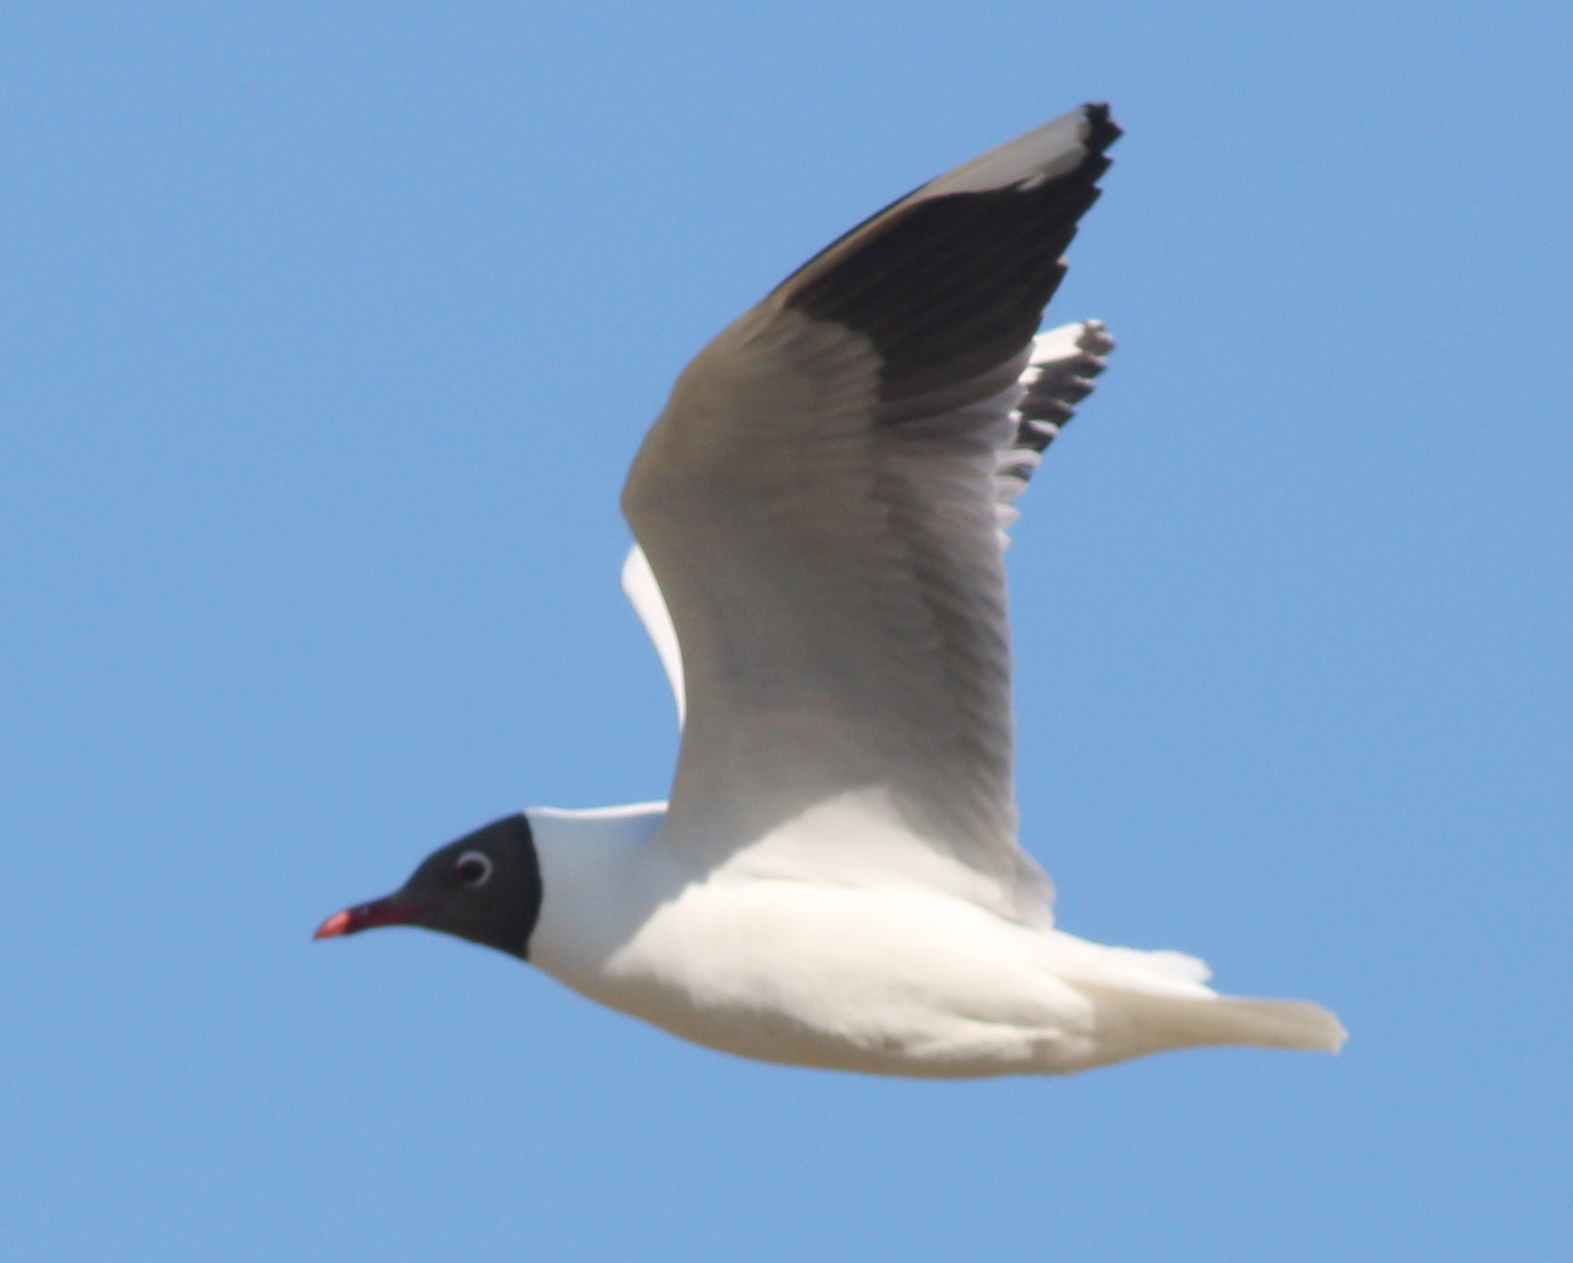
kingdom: Animalia
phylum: Chordata
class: Aves
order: Charadriiformes
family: Laridae
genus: Chroicocephalus
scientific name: Chroicocephalus maculipennis
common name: Brown-hooded gull
